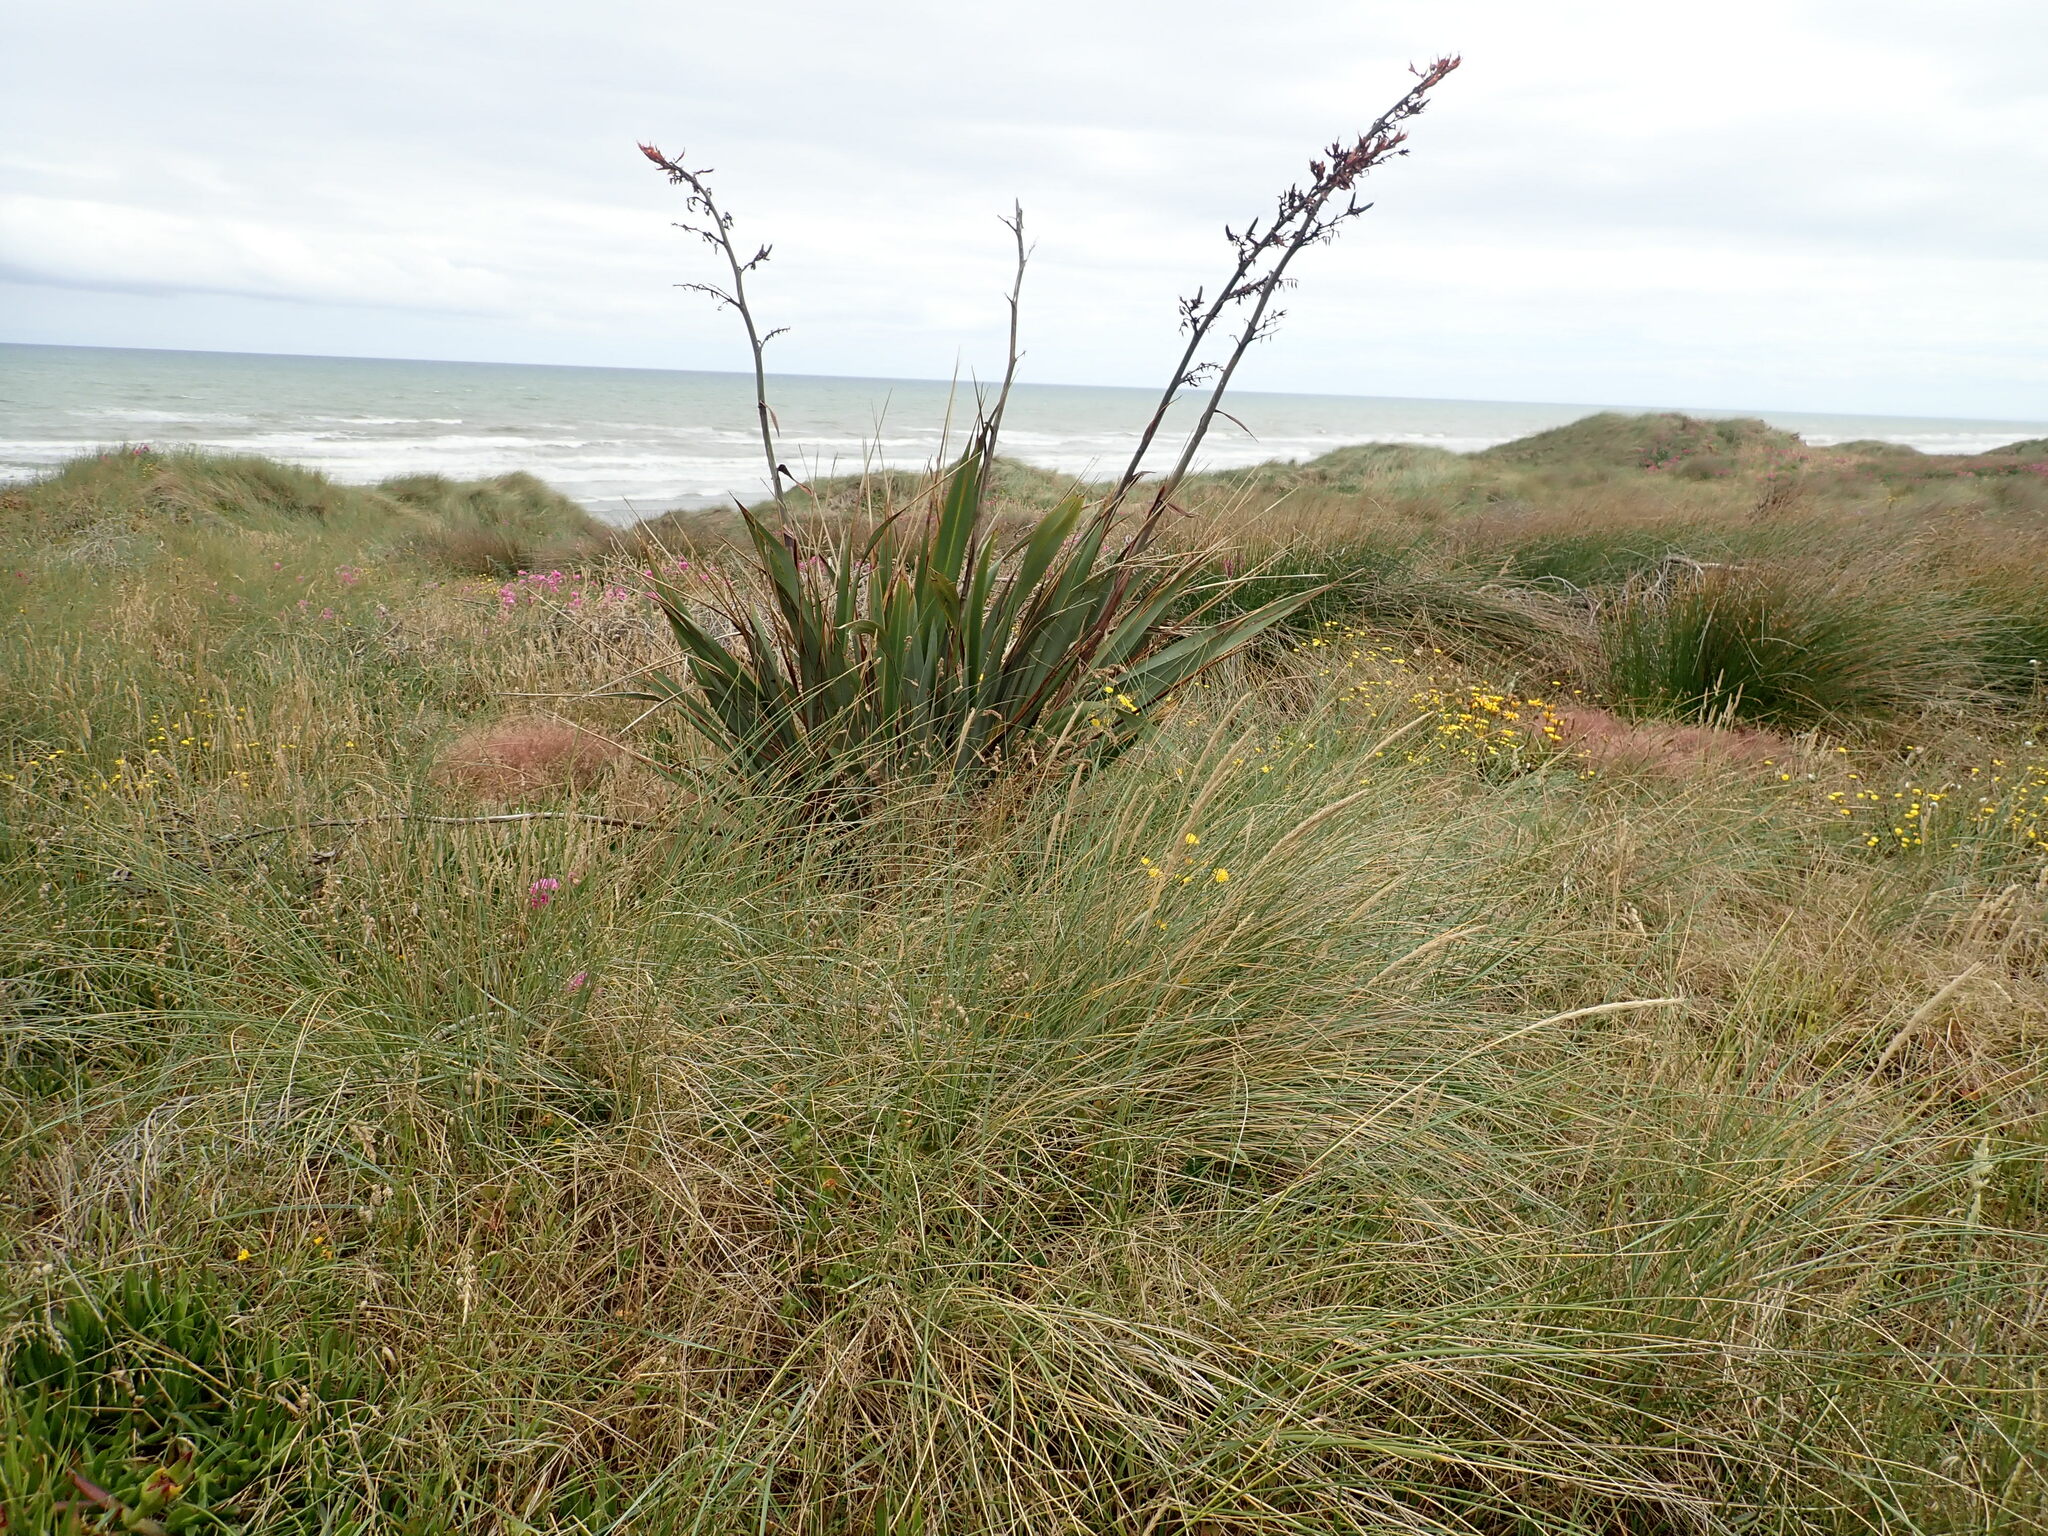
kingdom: Plantae
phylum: Tracheophyta
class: Liliopsida
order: Asparagales
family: Asphodelaceae
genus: Phormium
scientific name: Phormium tenax
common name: New zealand flax
